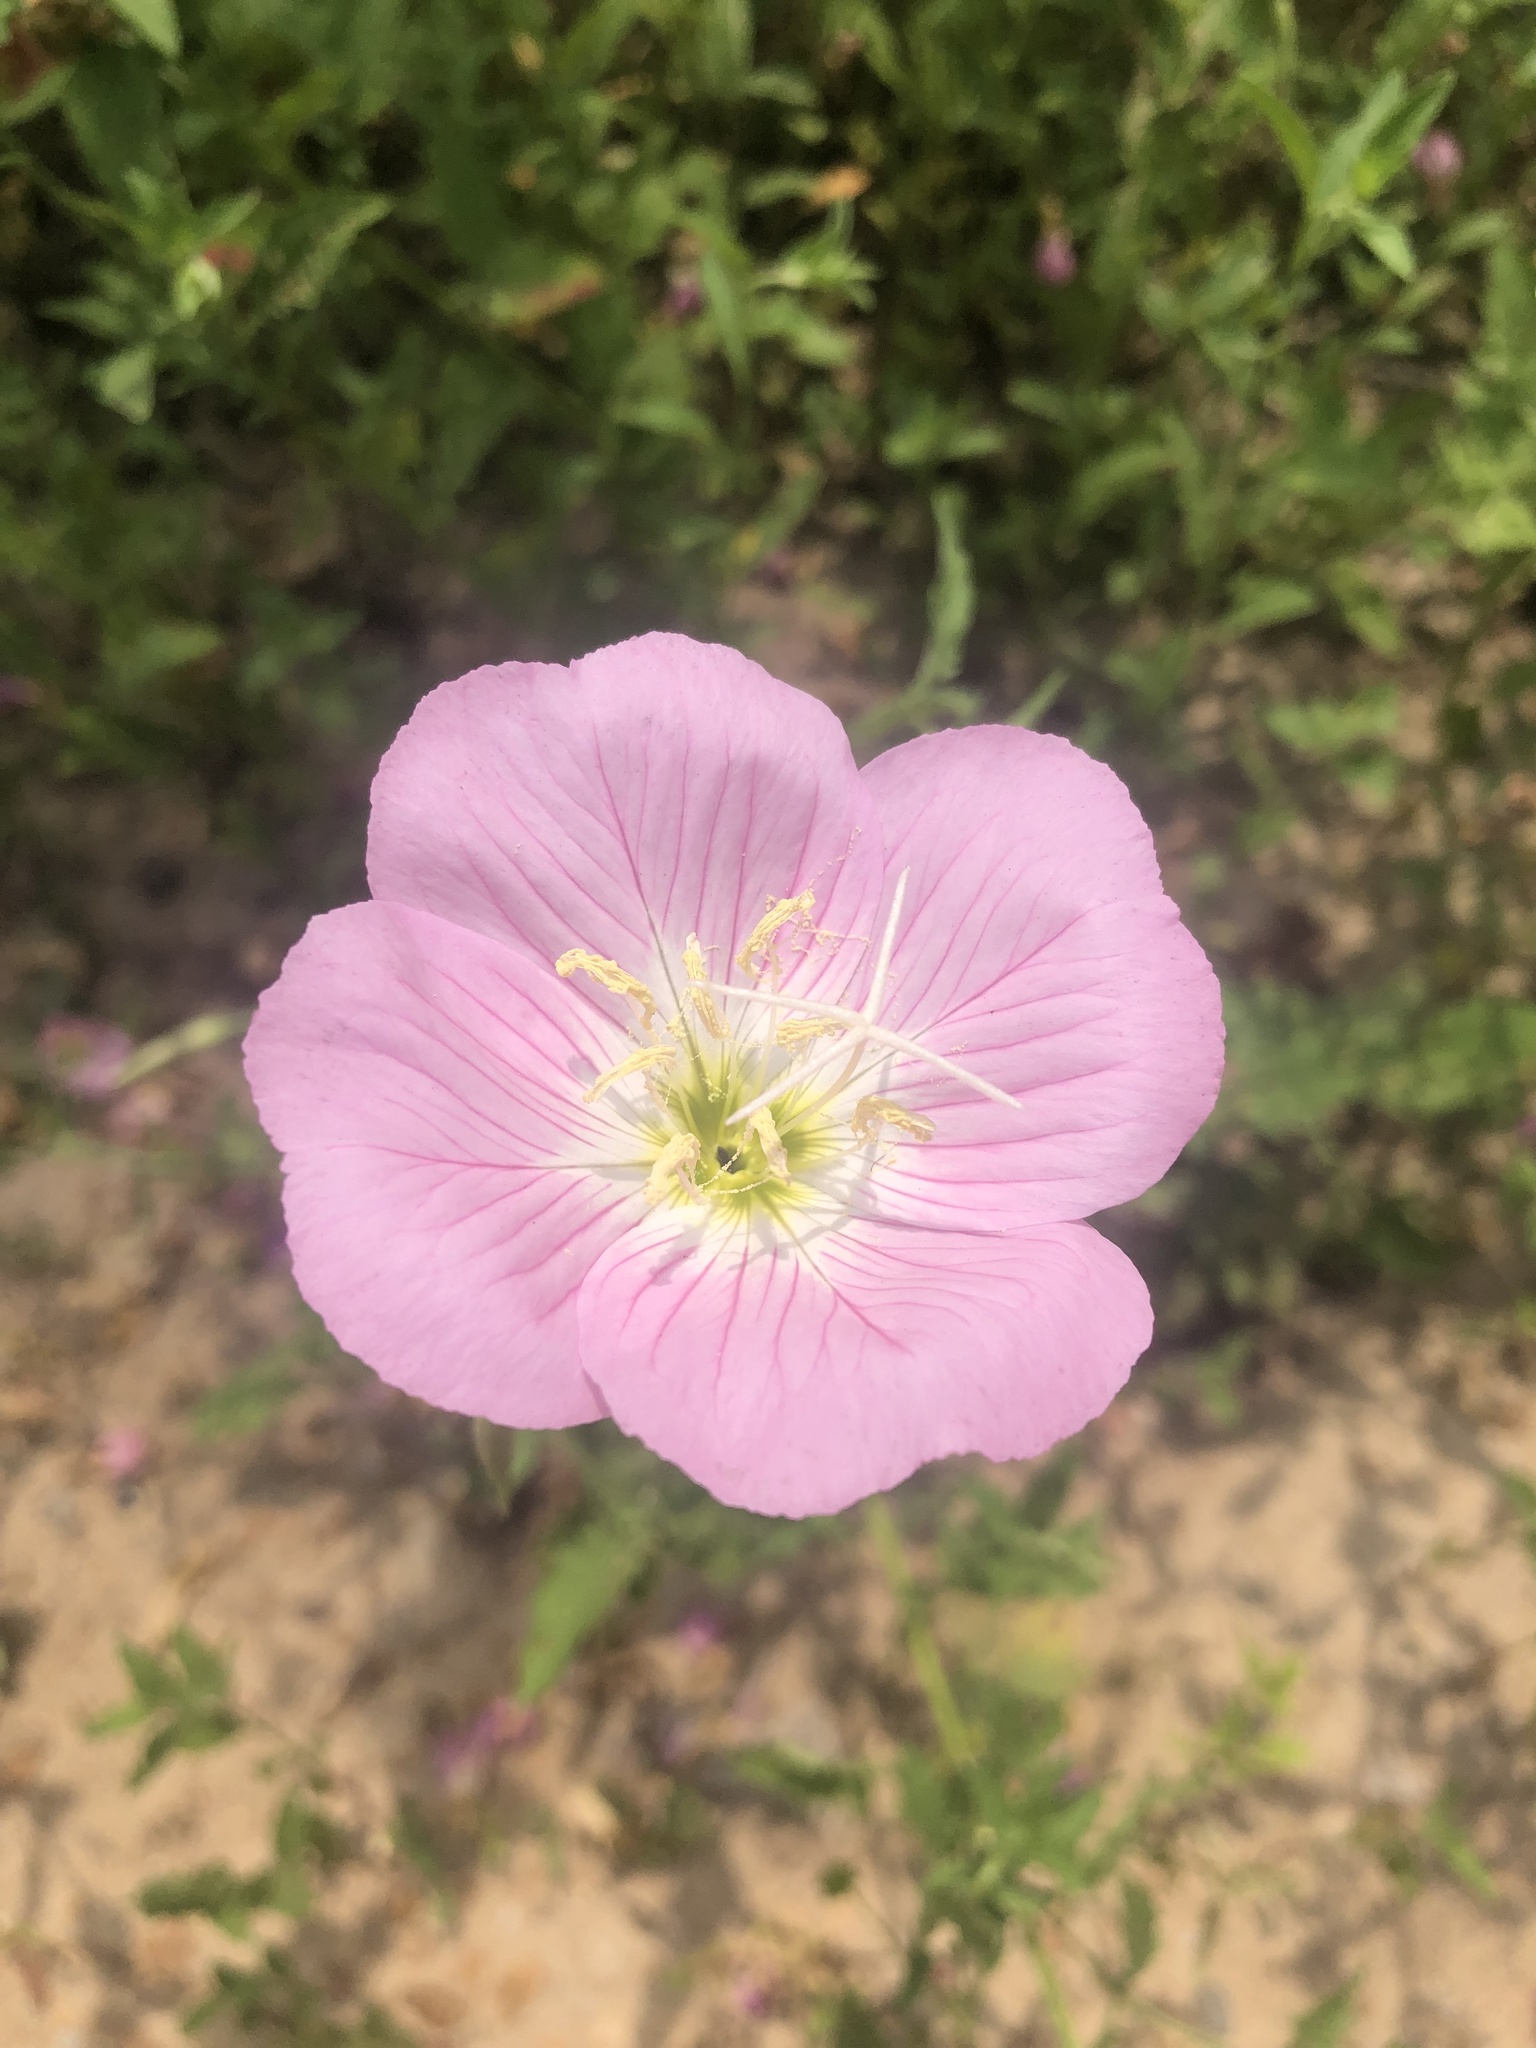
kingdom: Plantae
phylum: Tracheophyta
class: Magnoliopsida
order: Myrtales
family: Onagraceae
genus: Oenothera
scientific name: Oenothera speciosa
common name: White evening-primrose
